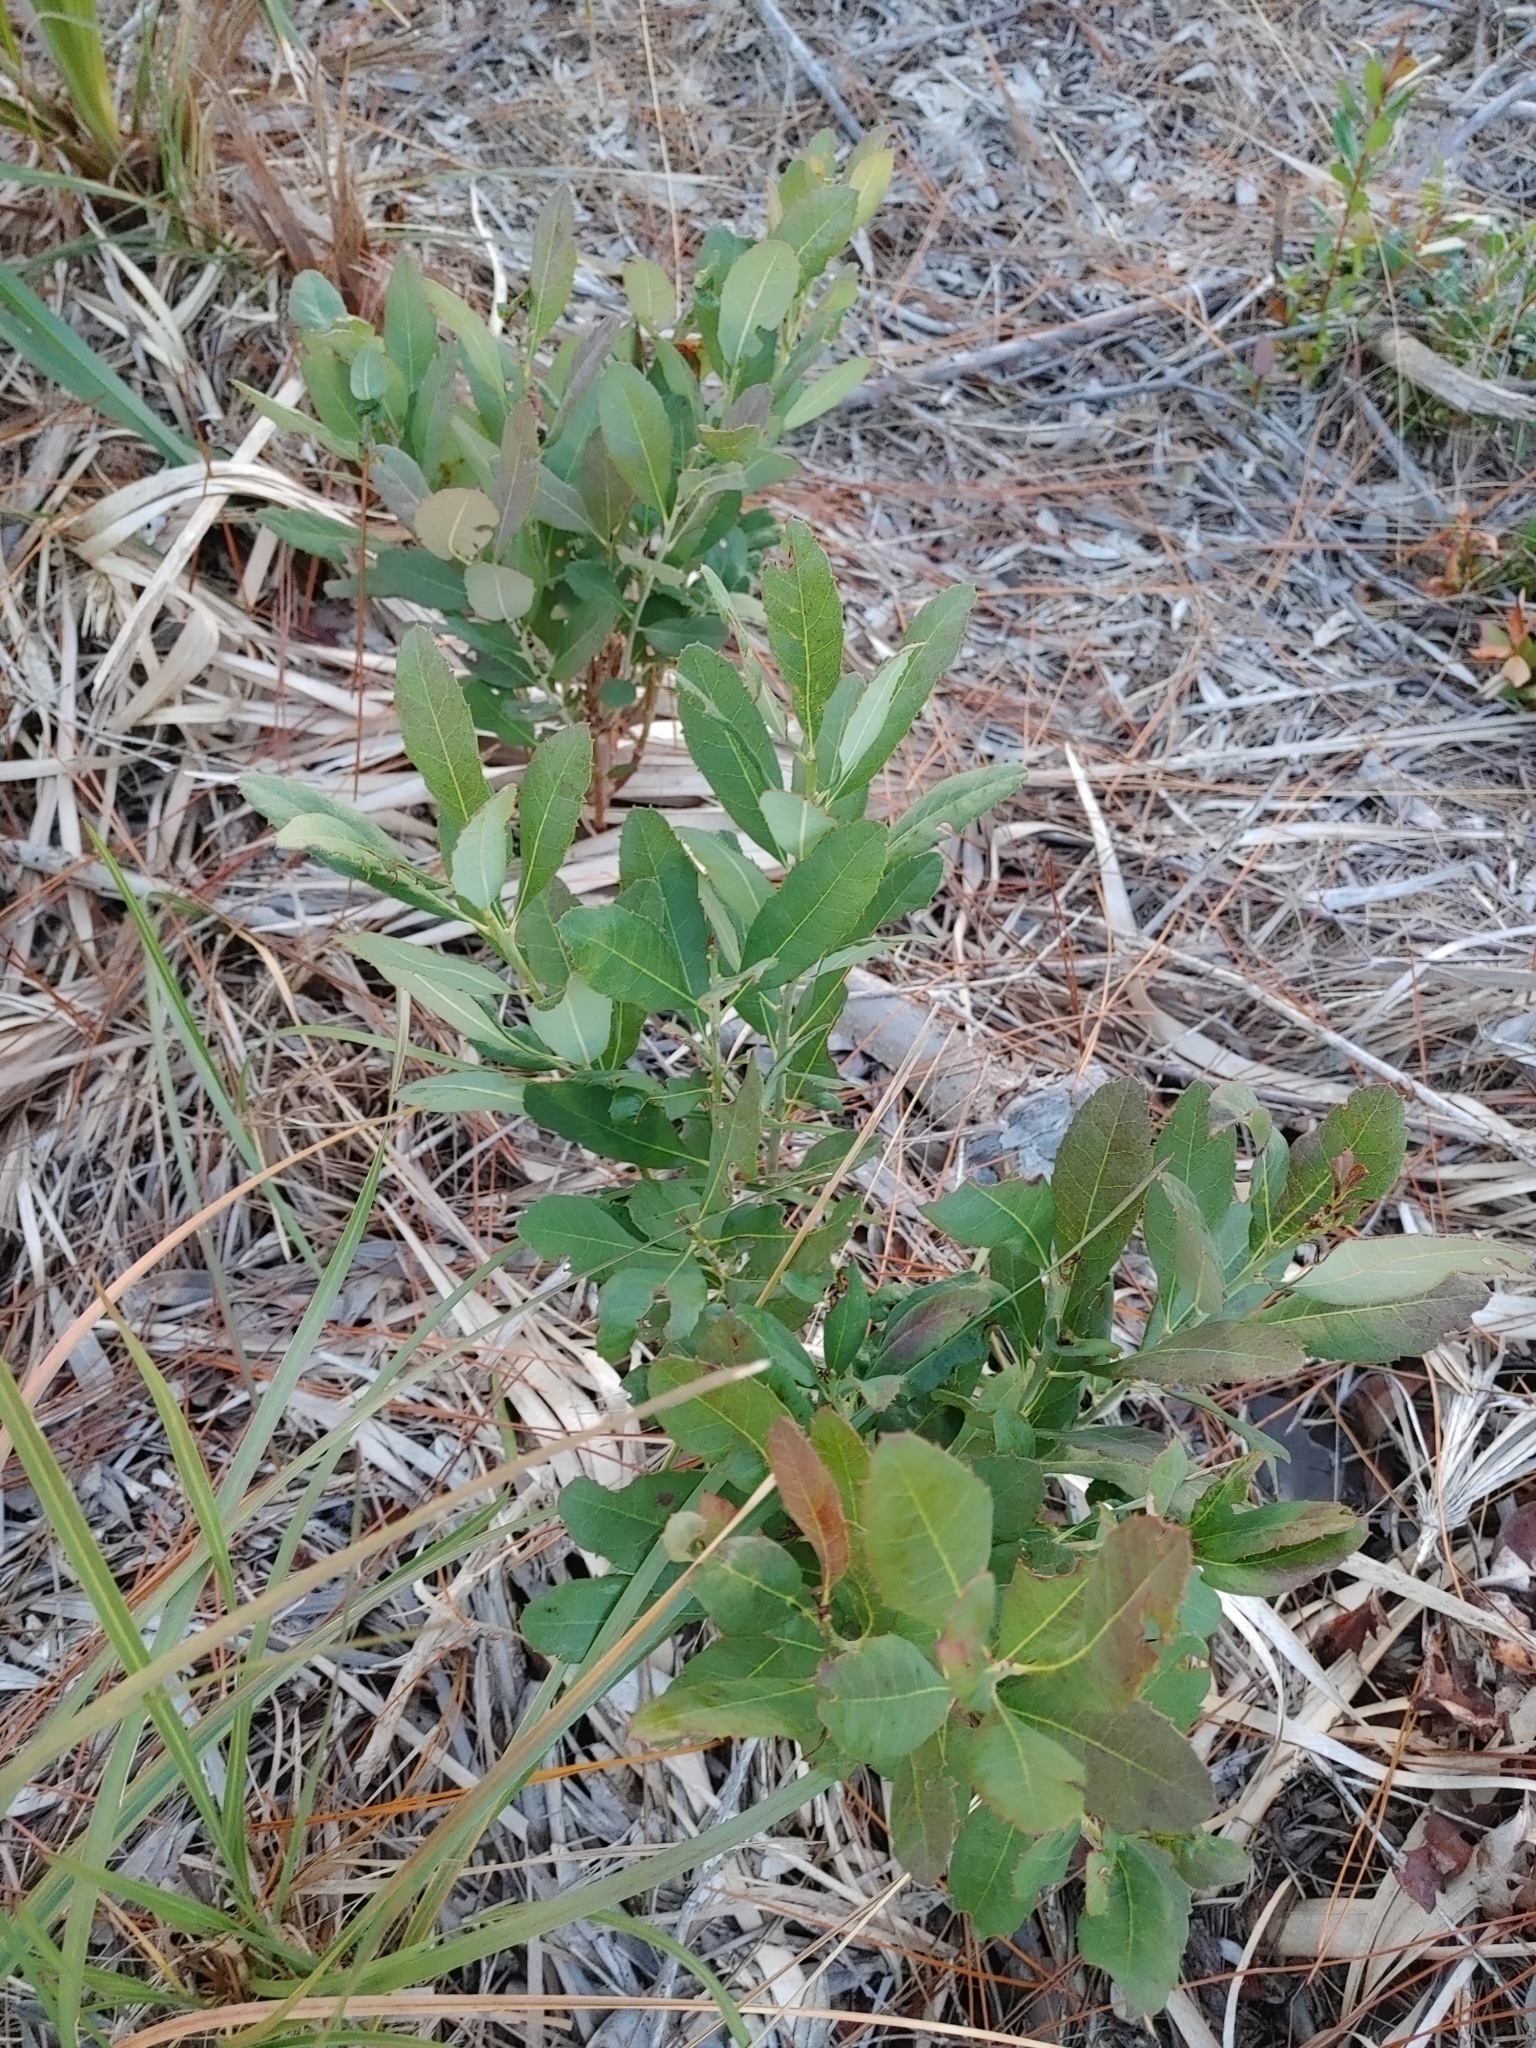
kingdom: Plantae
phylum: Tracheophyta
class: Magnoliopsida
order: Fagales
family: Myricaceae
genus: Morella
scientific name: Morella caroliniensis
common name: Evergreen bayberry
